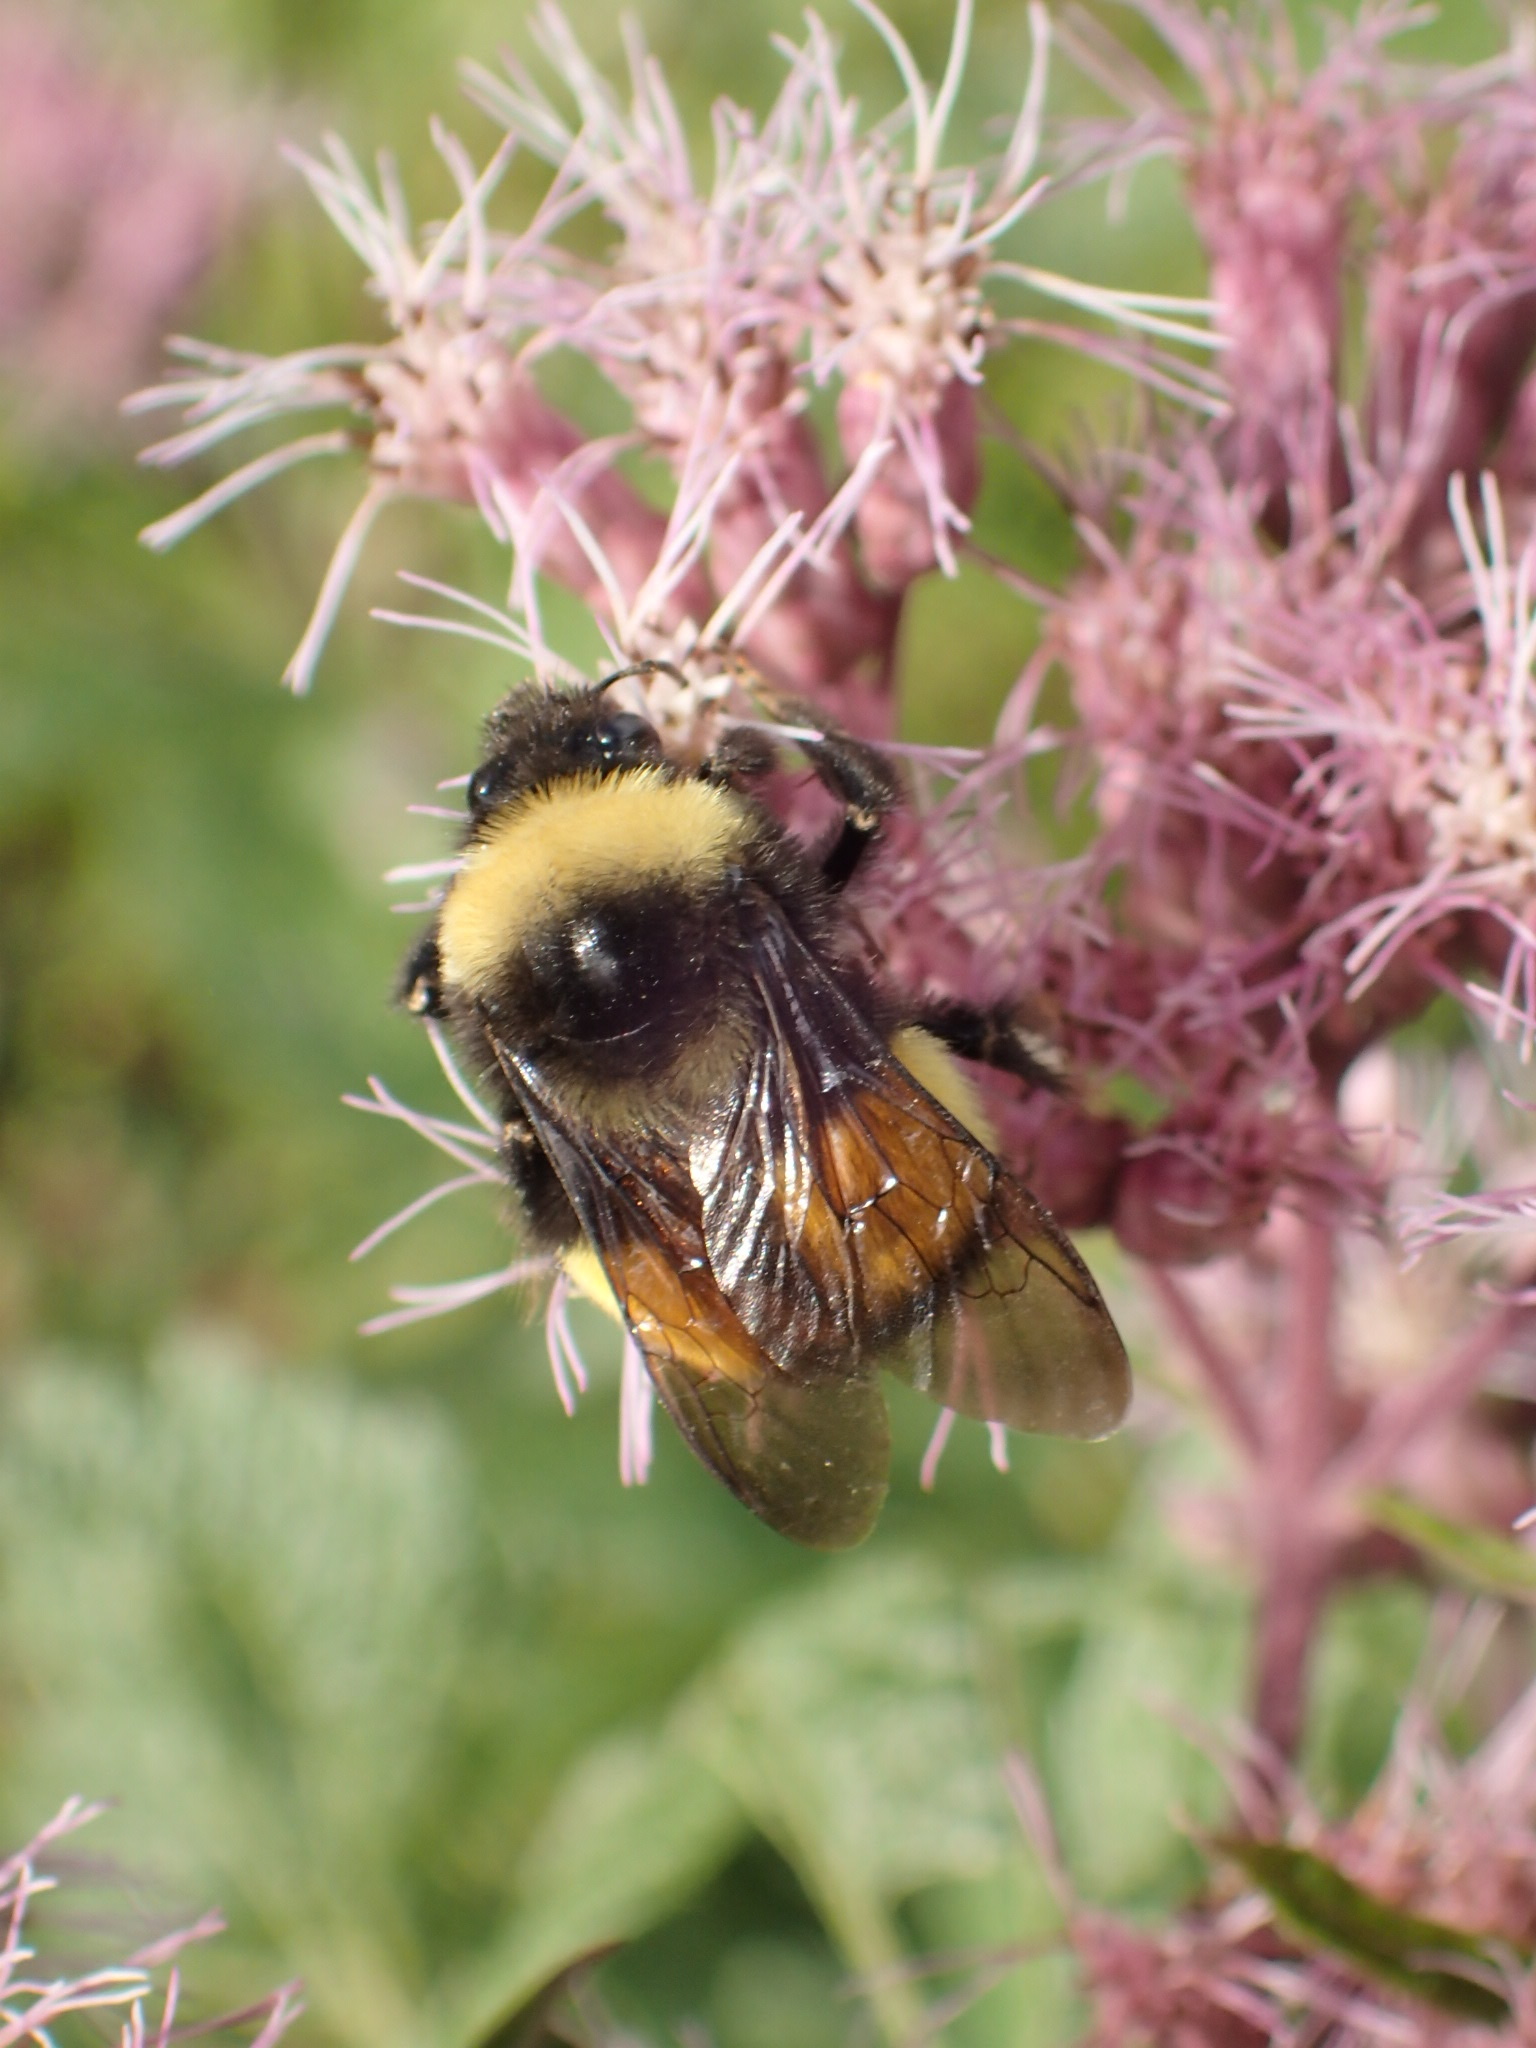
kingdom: Animalia
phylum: Arthropoda
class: Insecta
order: Hymenoptera
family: Apidae
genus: Bombus
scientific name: Bombus terricola
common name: Yellow-banded bumble bee
